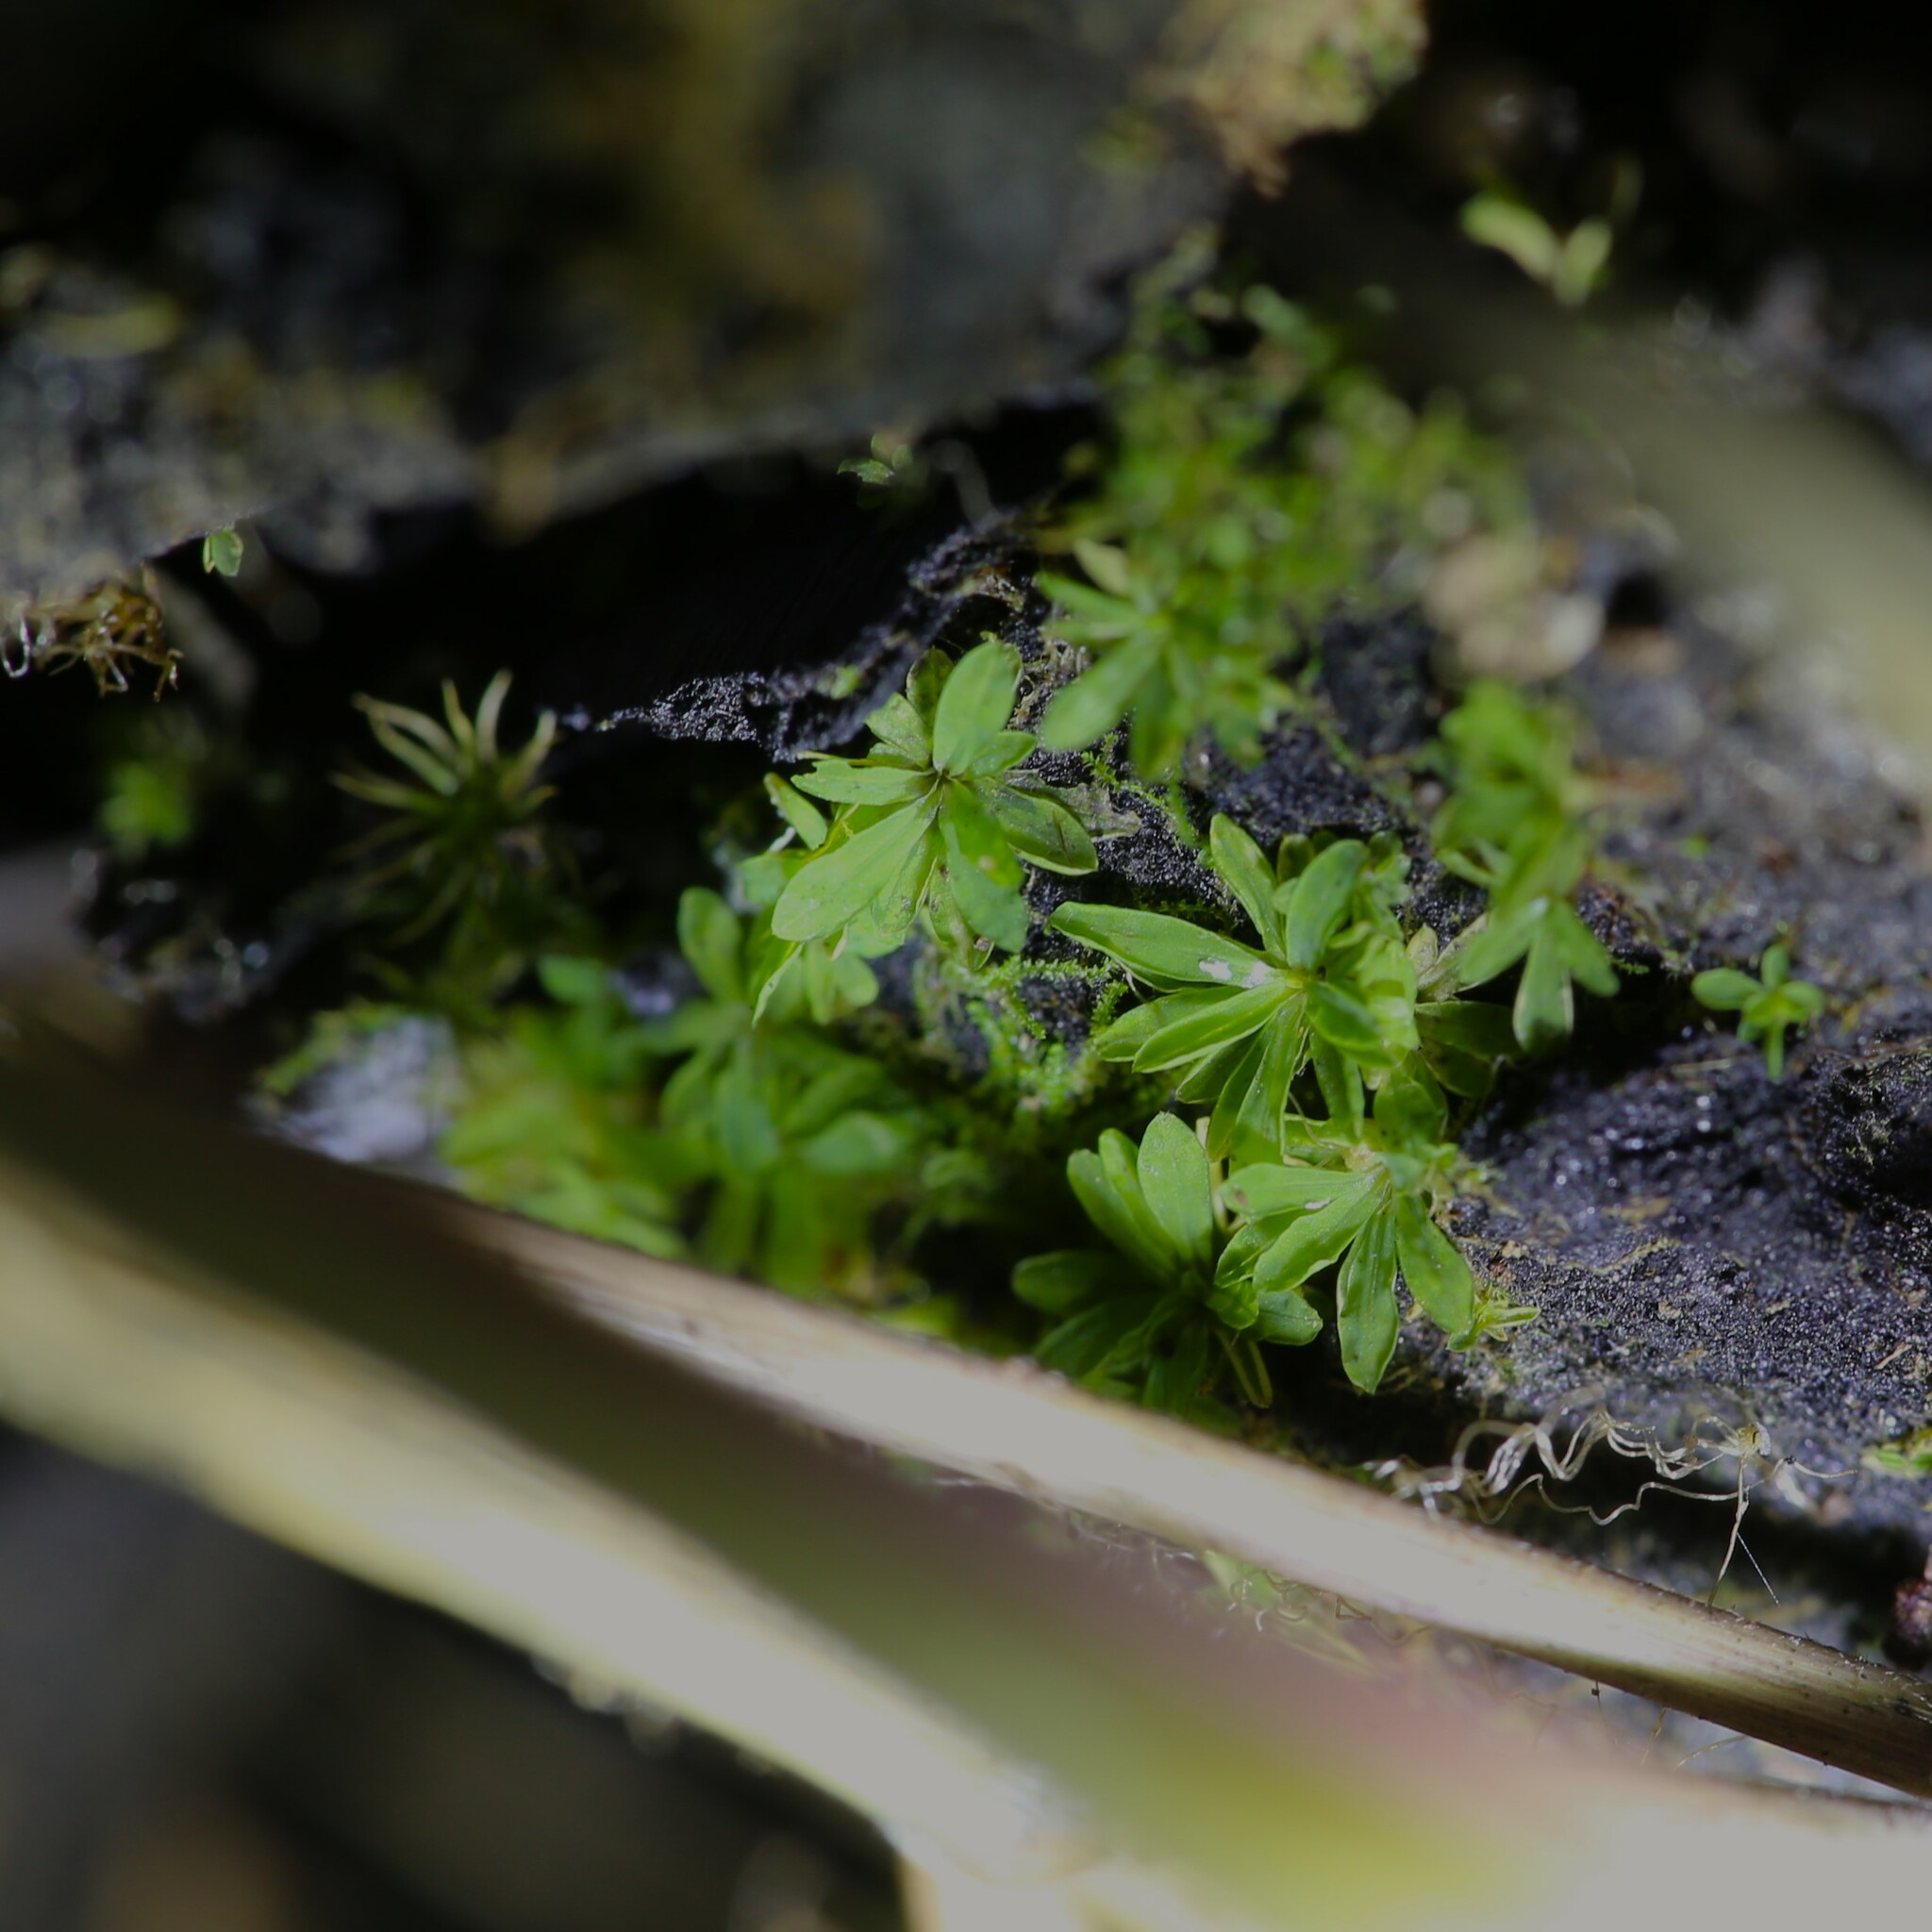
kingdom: Plantae
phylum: Bryophyta
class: Bryopsida
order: Pottiales
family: Pottiaceae
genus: Calymperastrum
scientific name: Calymperastrum latifolium
